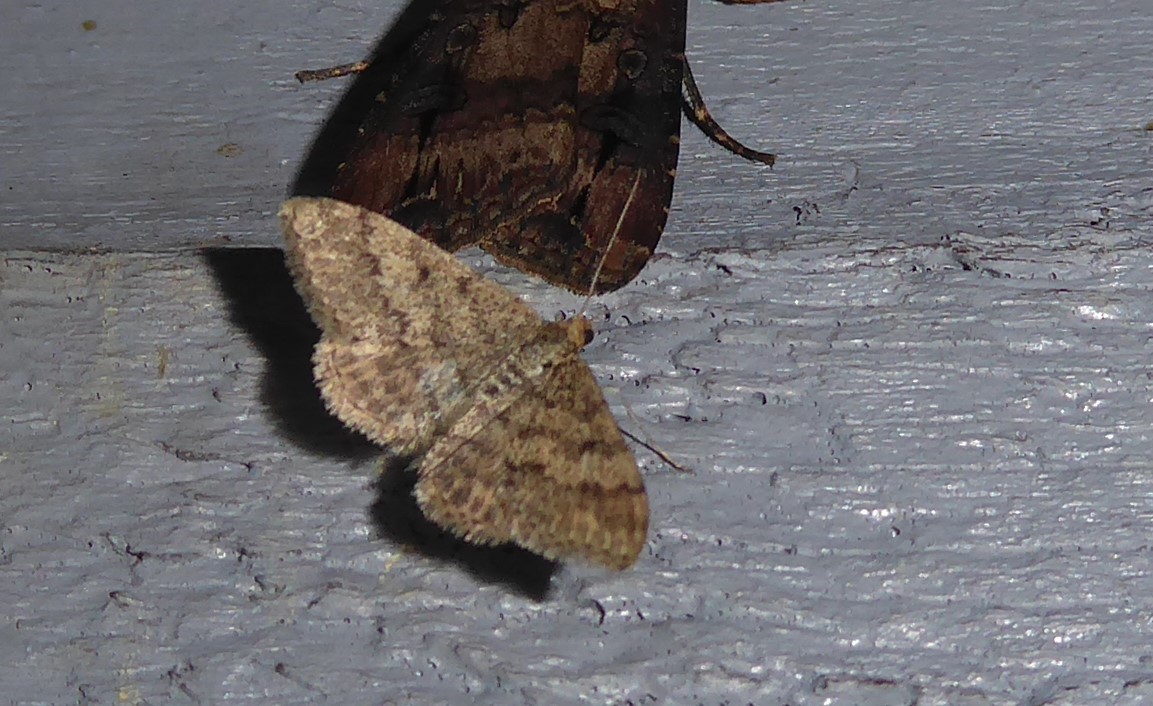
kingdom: Animalia
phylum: Arthropoda
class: Insecta
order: Lepidoptera
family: Geometridae
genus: Scopula
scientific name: Scopula rubraria
